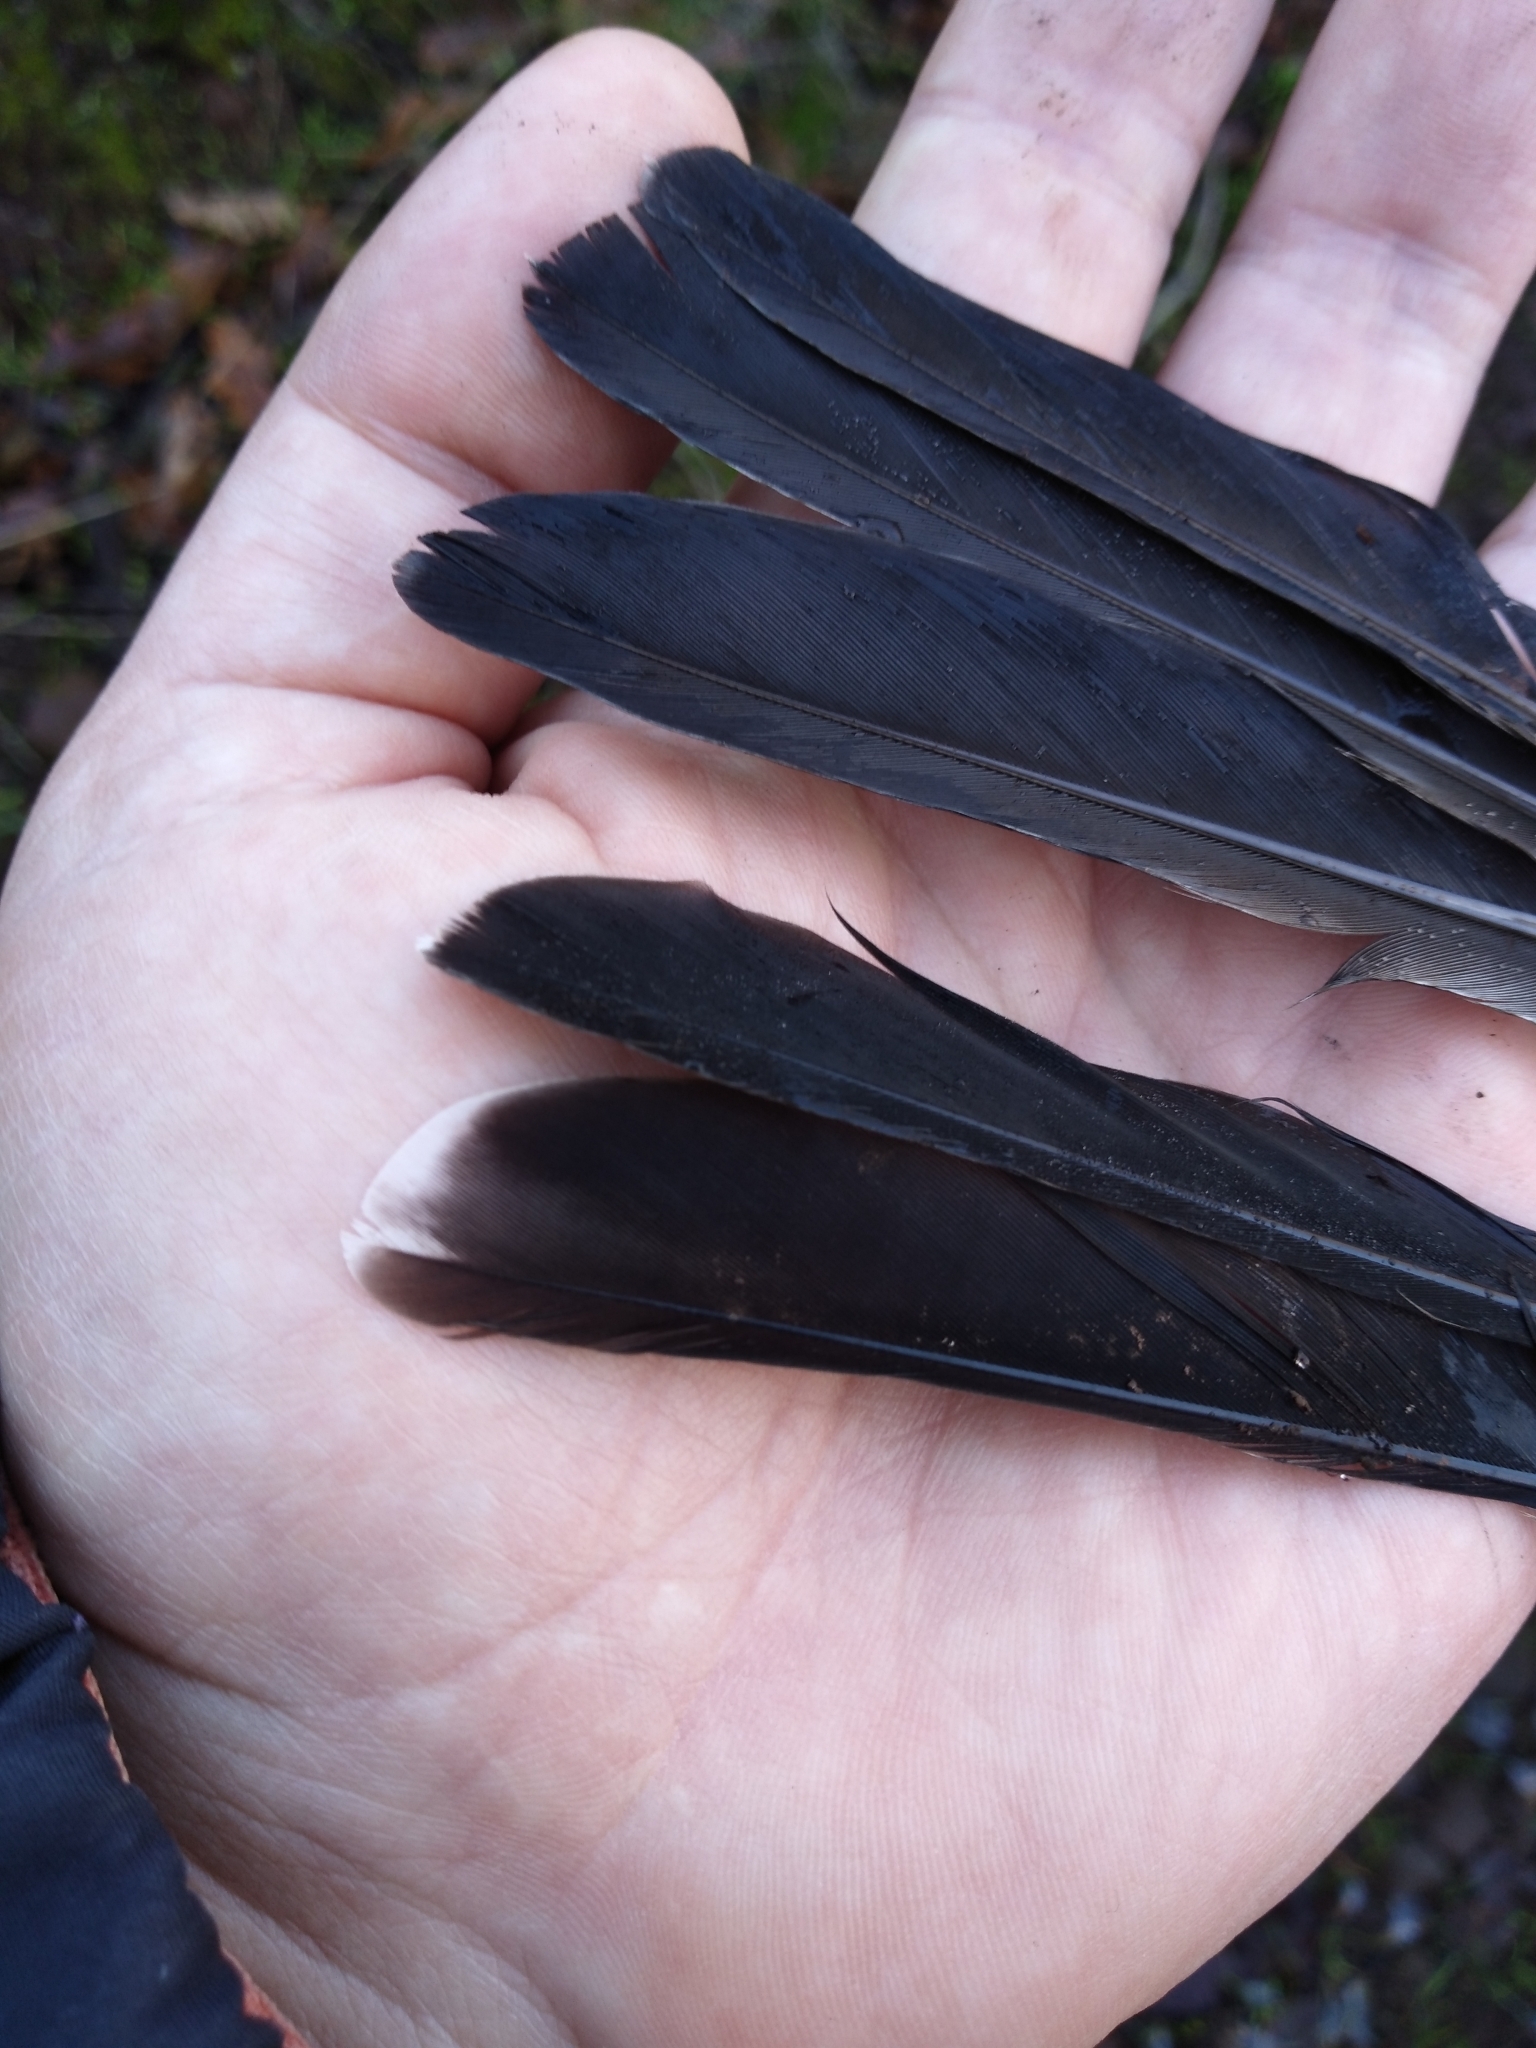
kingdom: Animalia
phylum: Chordata
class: Aves
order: Passeriformes
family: Turdidae
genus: Turdus
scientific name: Turdus migratorius
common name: American robin
